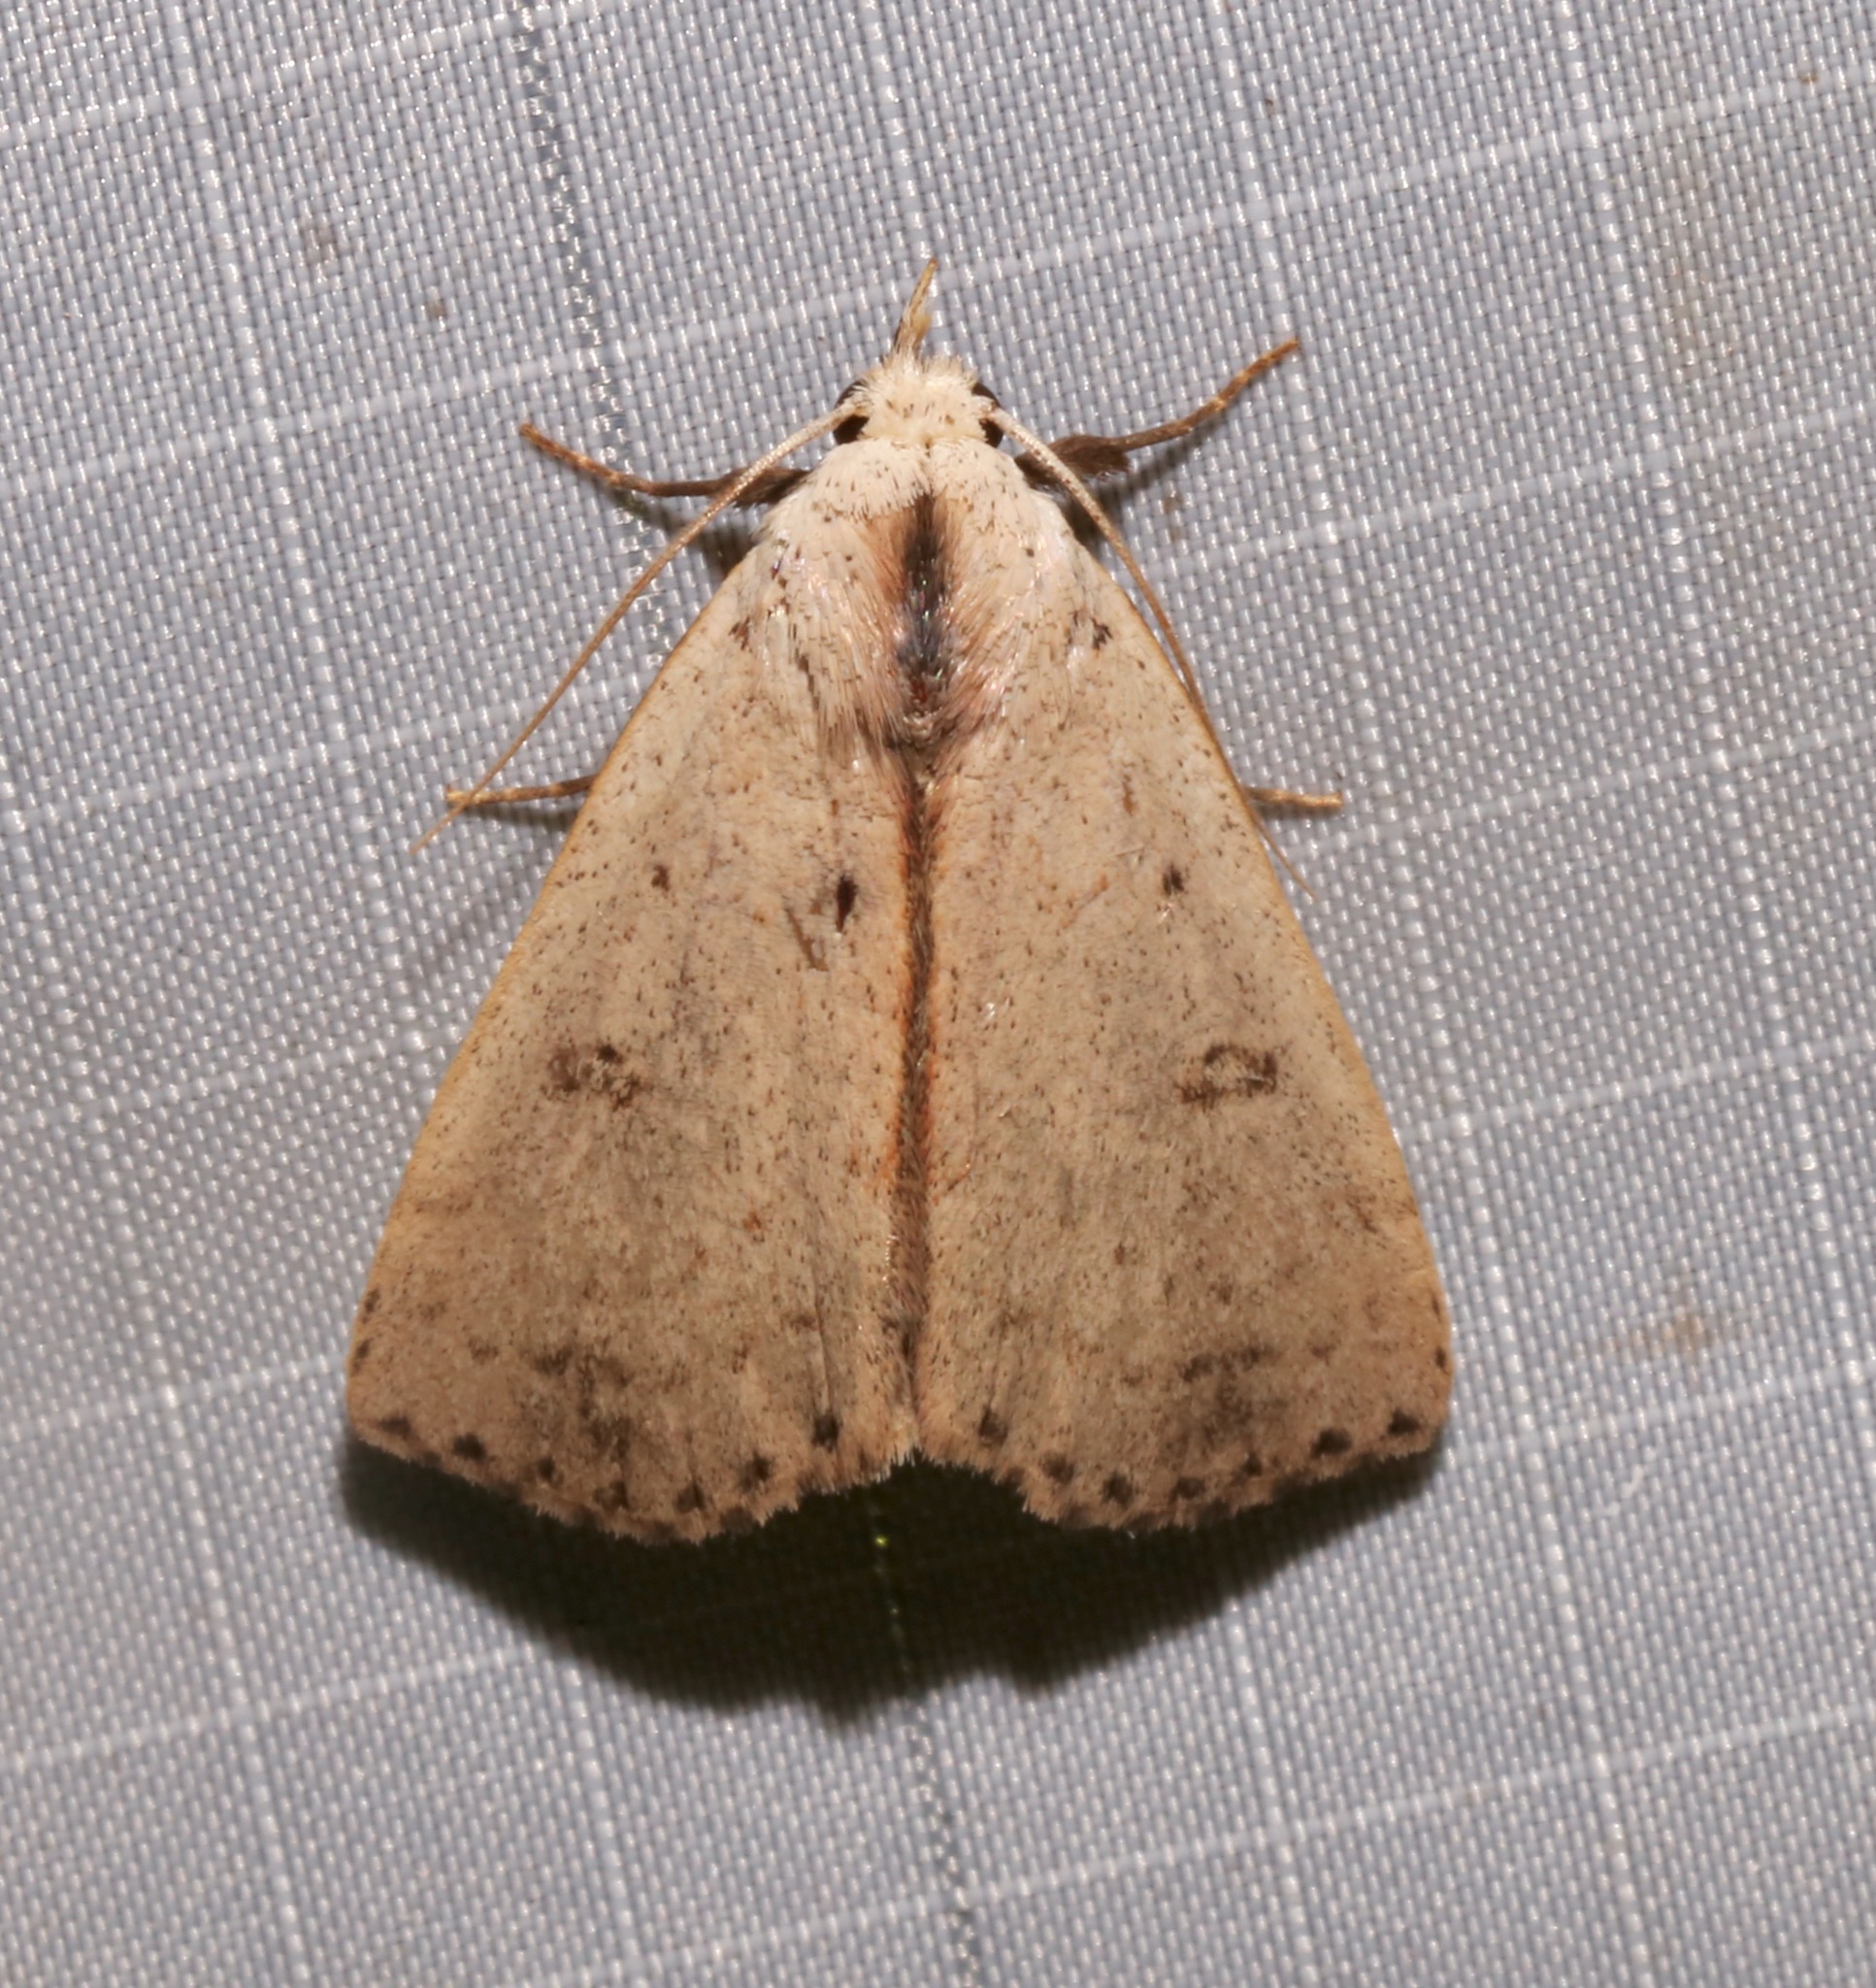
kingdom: Animalia
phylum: Arthropoda
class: Insecta
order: Lepidoptera
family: Erebidae
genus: Scolecocampa
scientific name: Scolecocampa liburna
